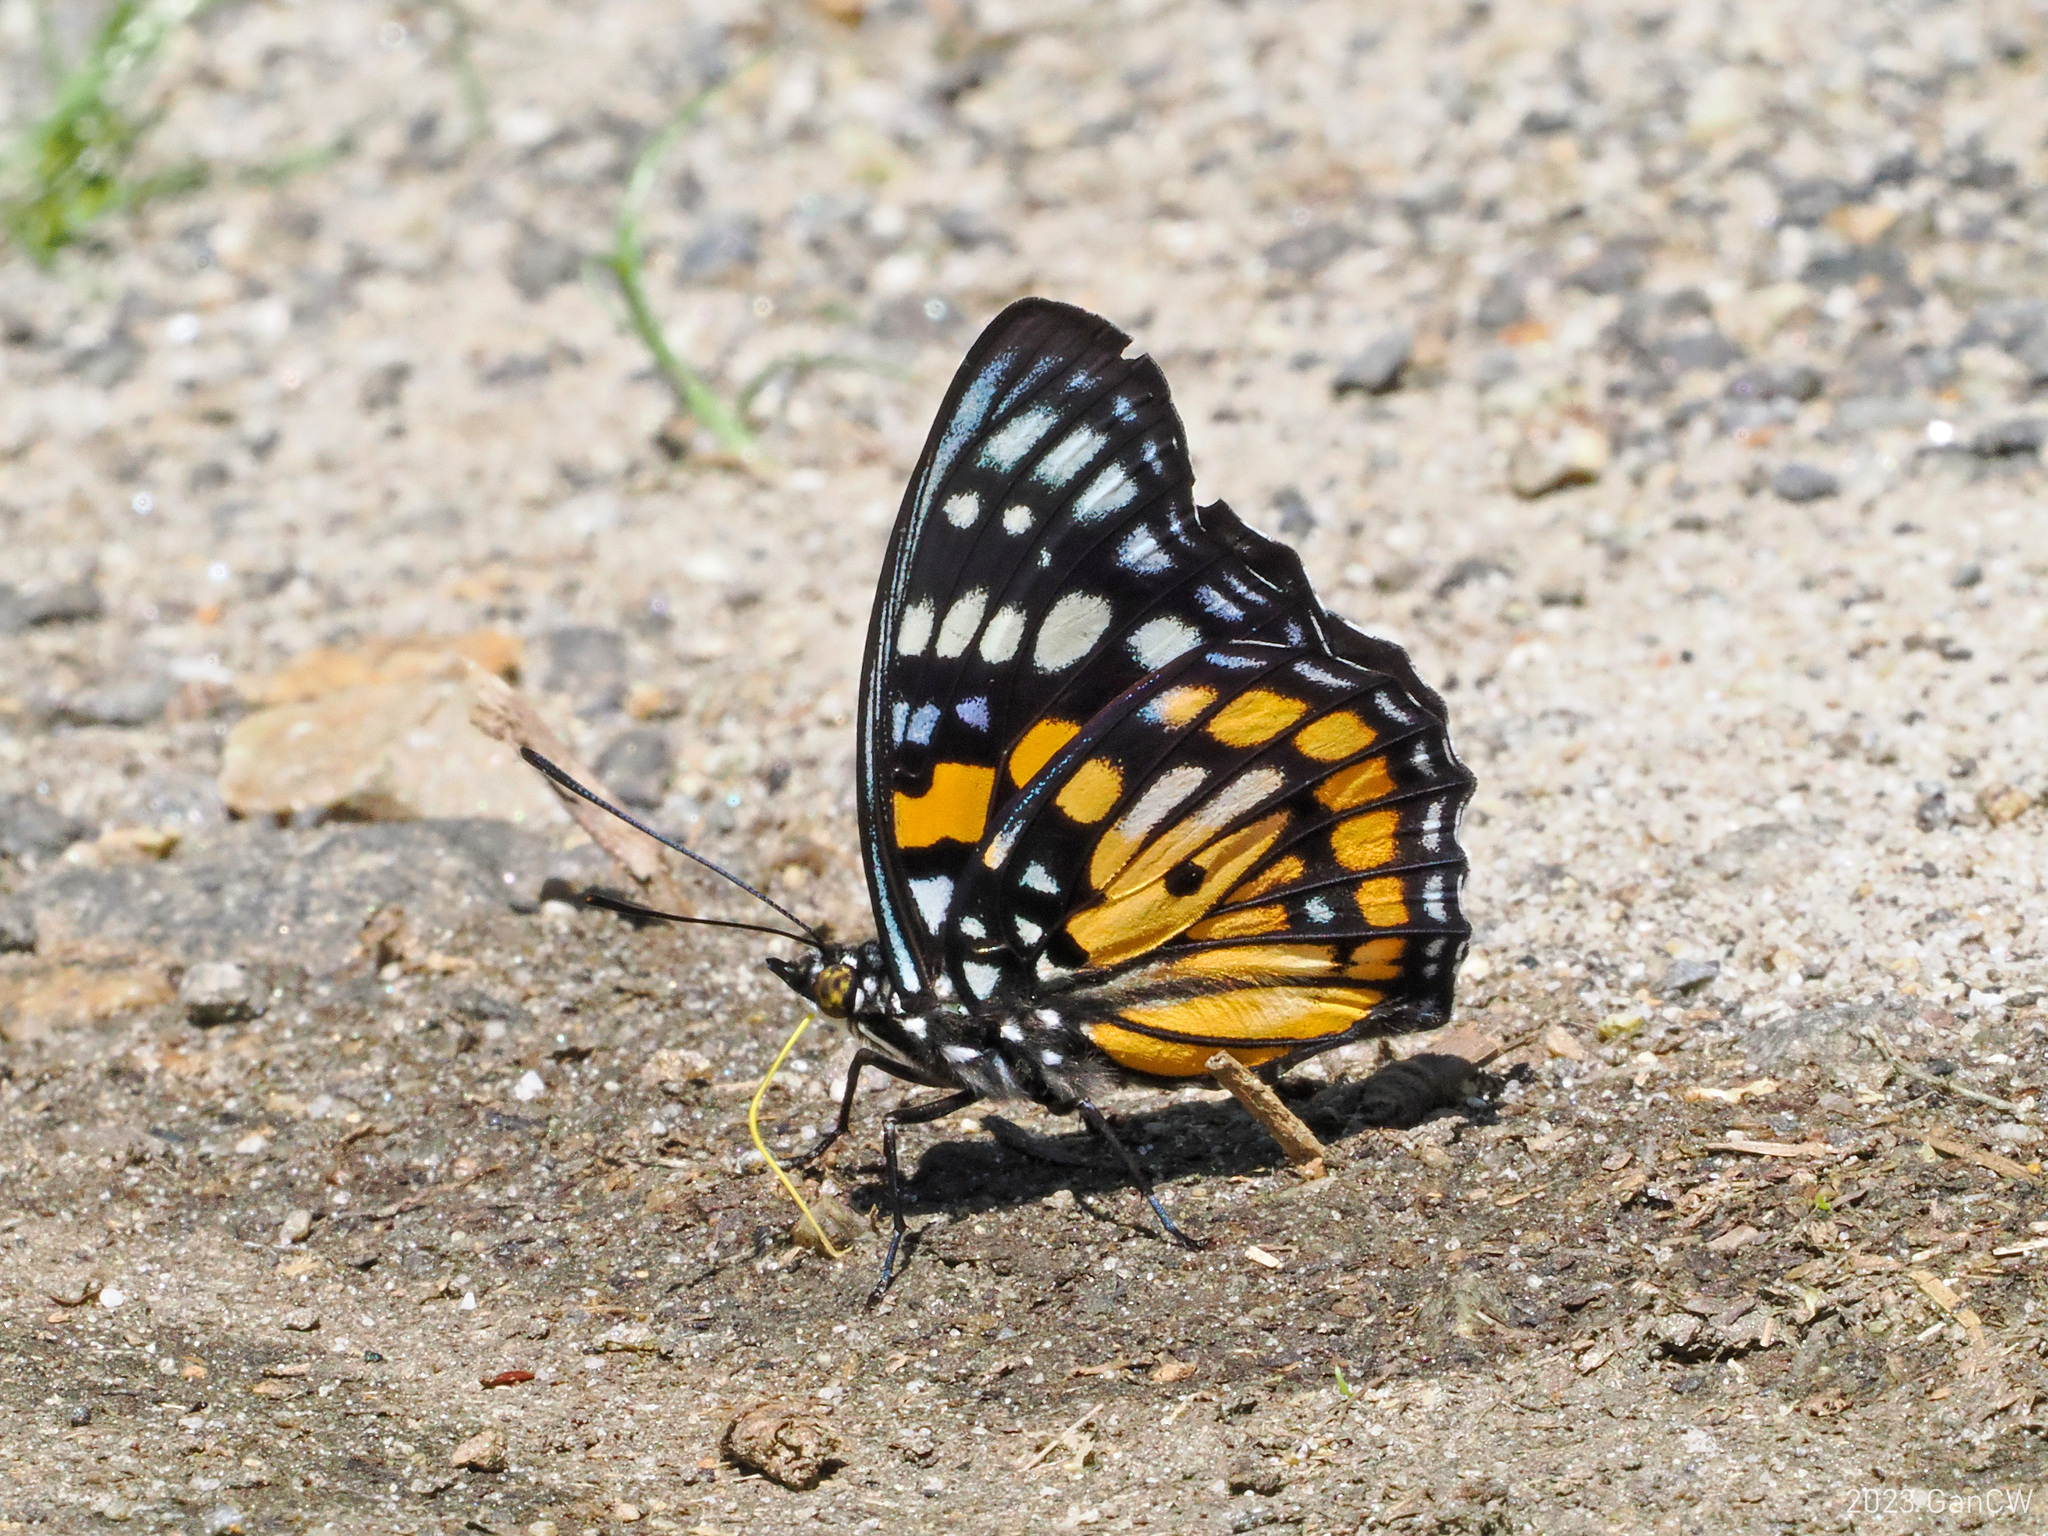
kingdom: Animalia
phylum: Arthropoda
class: Insecta
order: Lepidoptera
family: Nymphalidae
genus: Sephisa
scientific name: Sephisa chandra
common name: Eastern courtier
